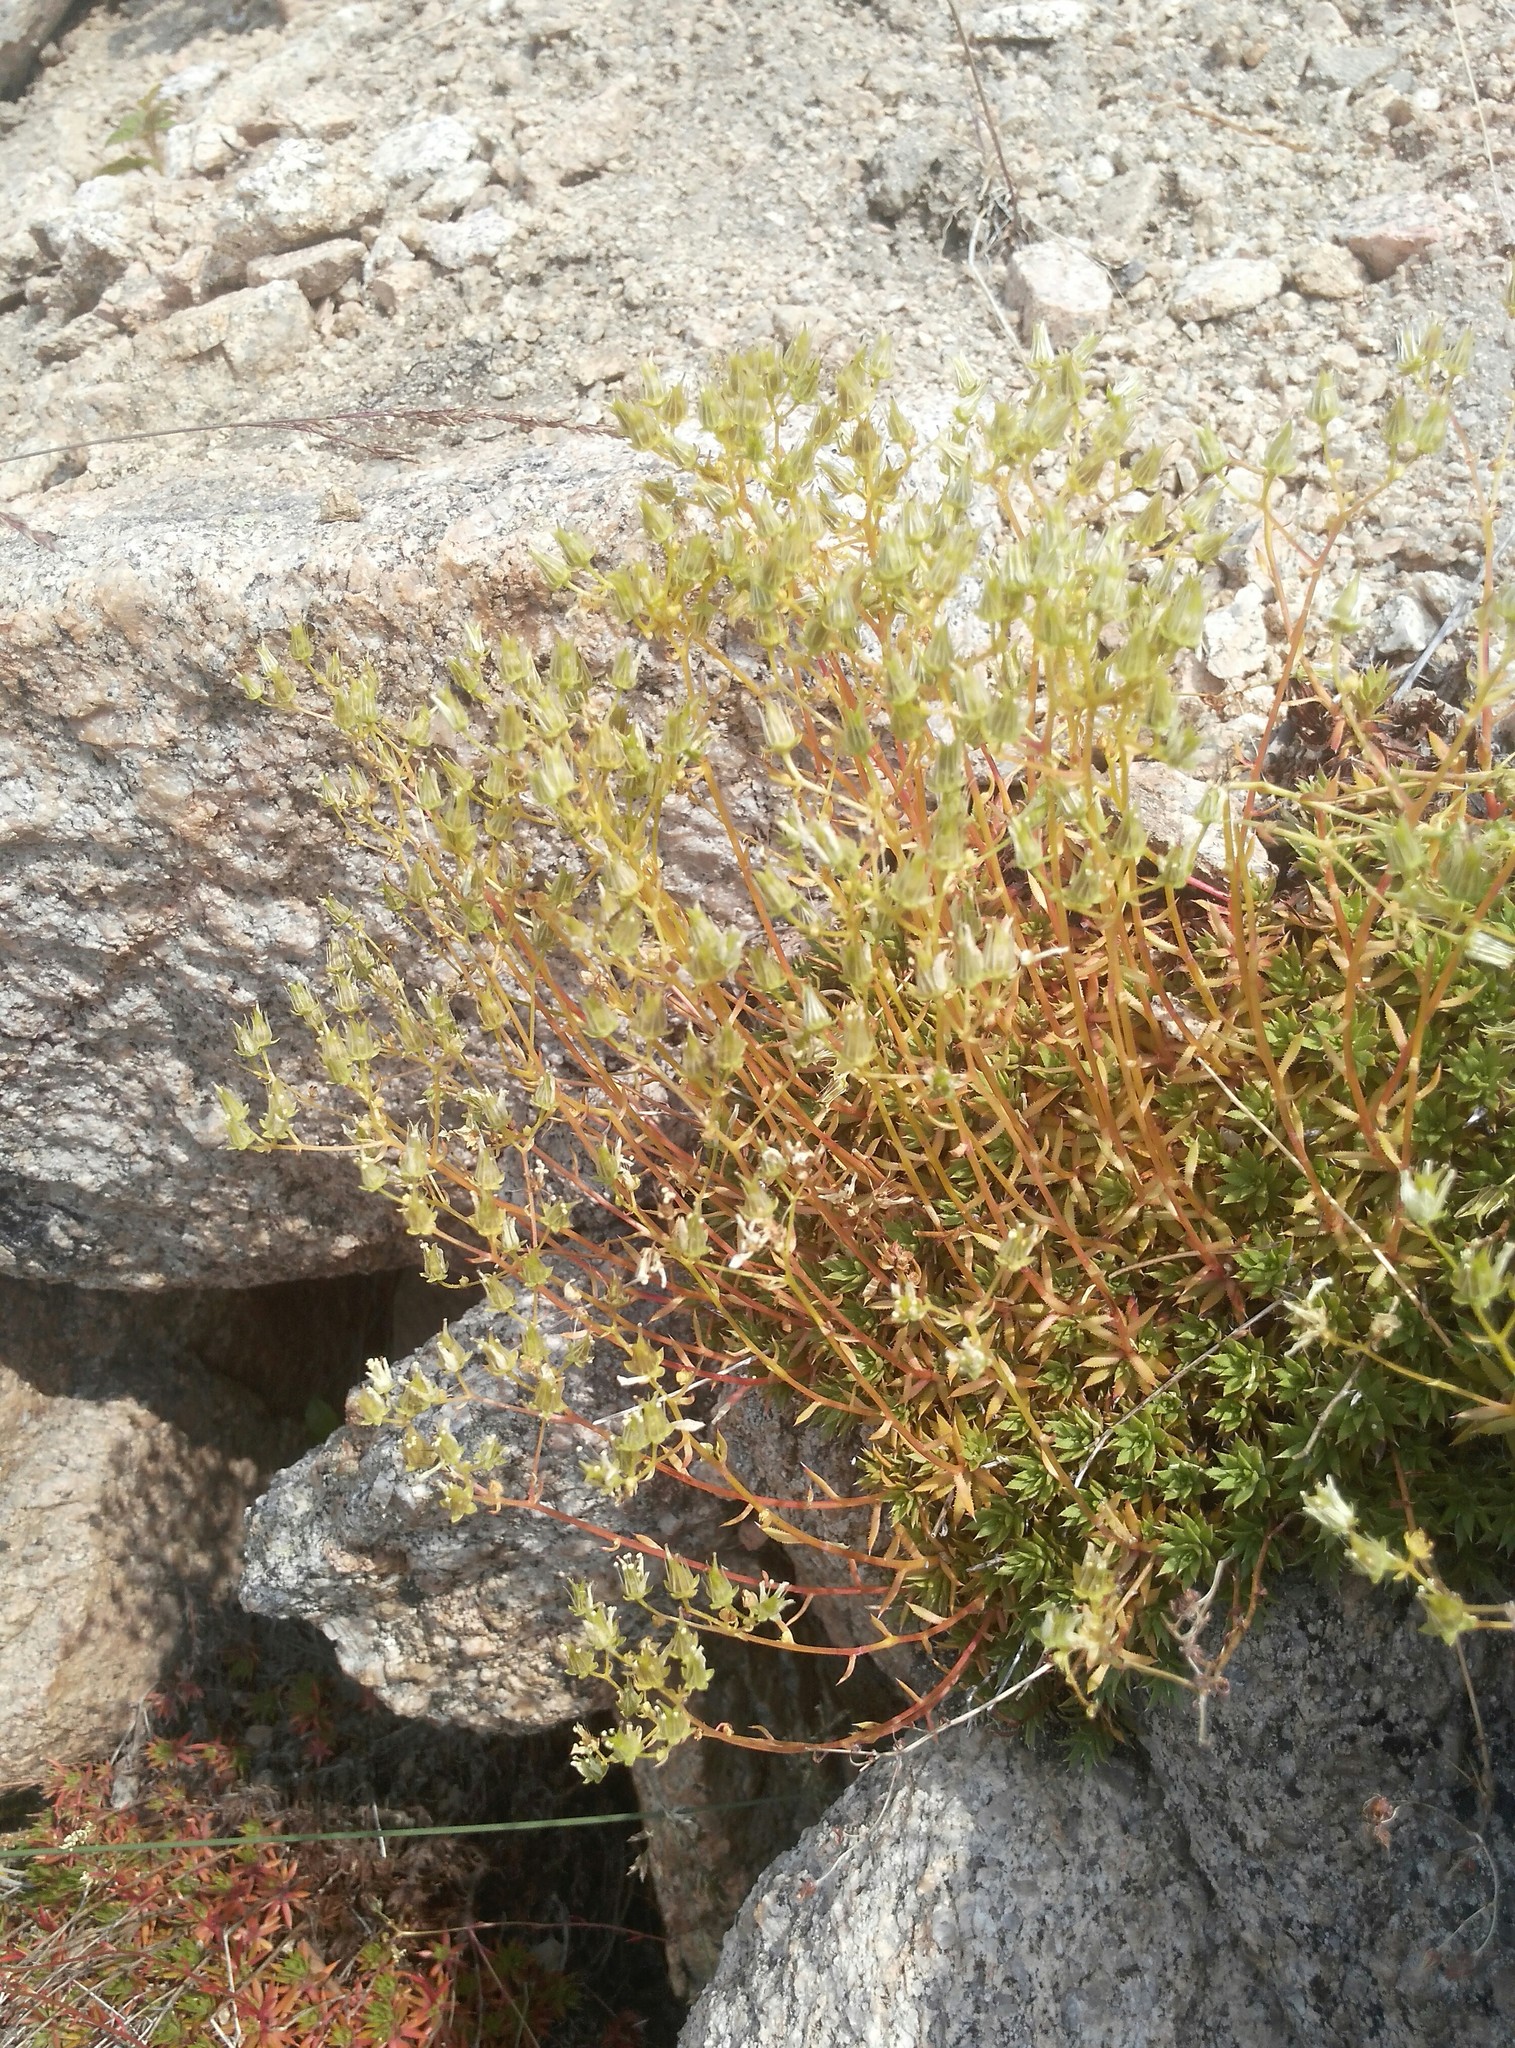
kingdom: Plantae
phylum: Tracheophyta
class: Magnoliopsida
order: Saxifragales
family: Saxifragaceae
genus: Saxifraga
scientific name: Saxifraga
